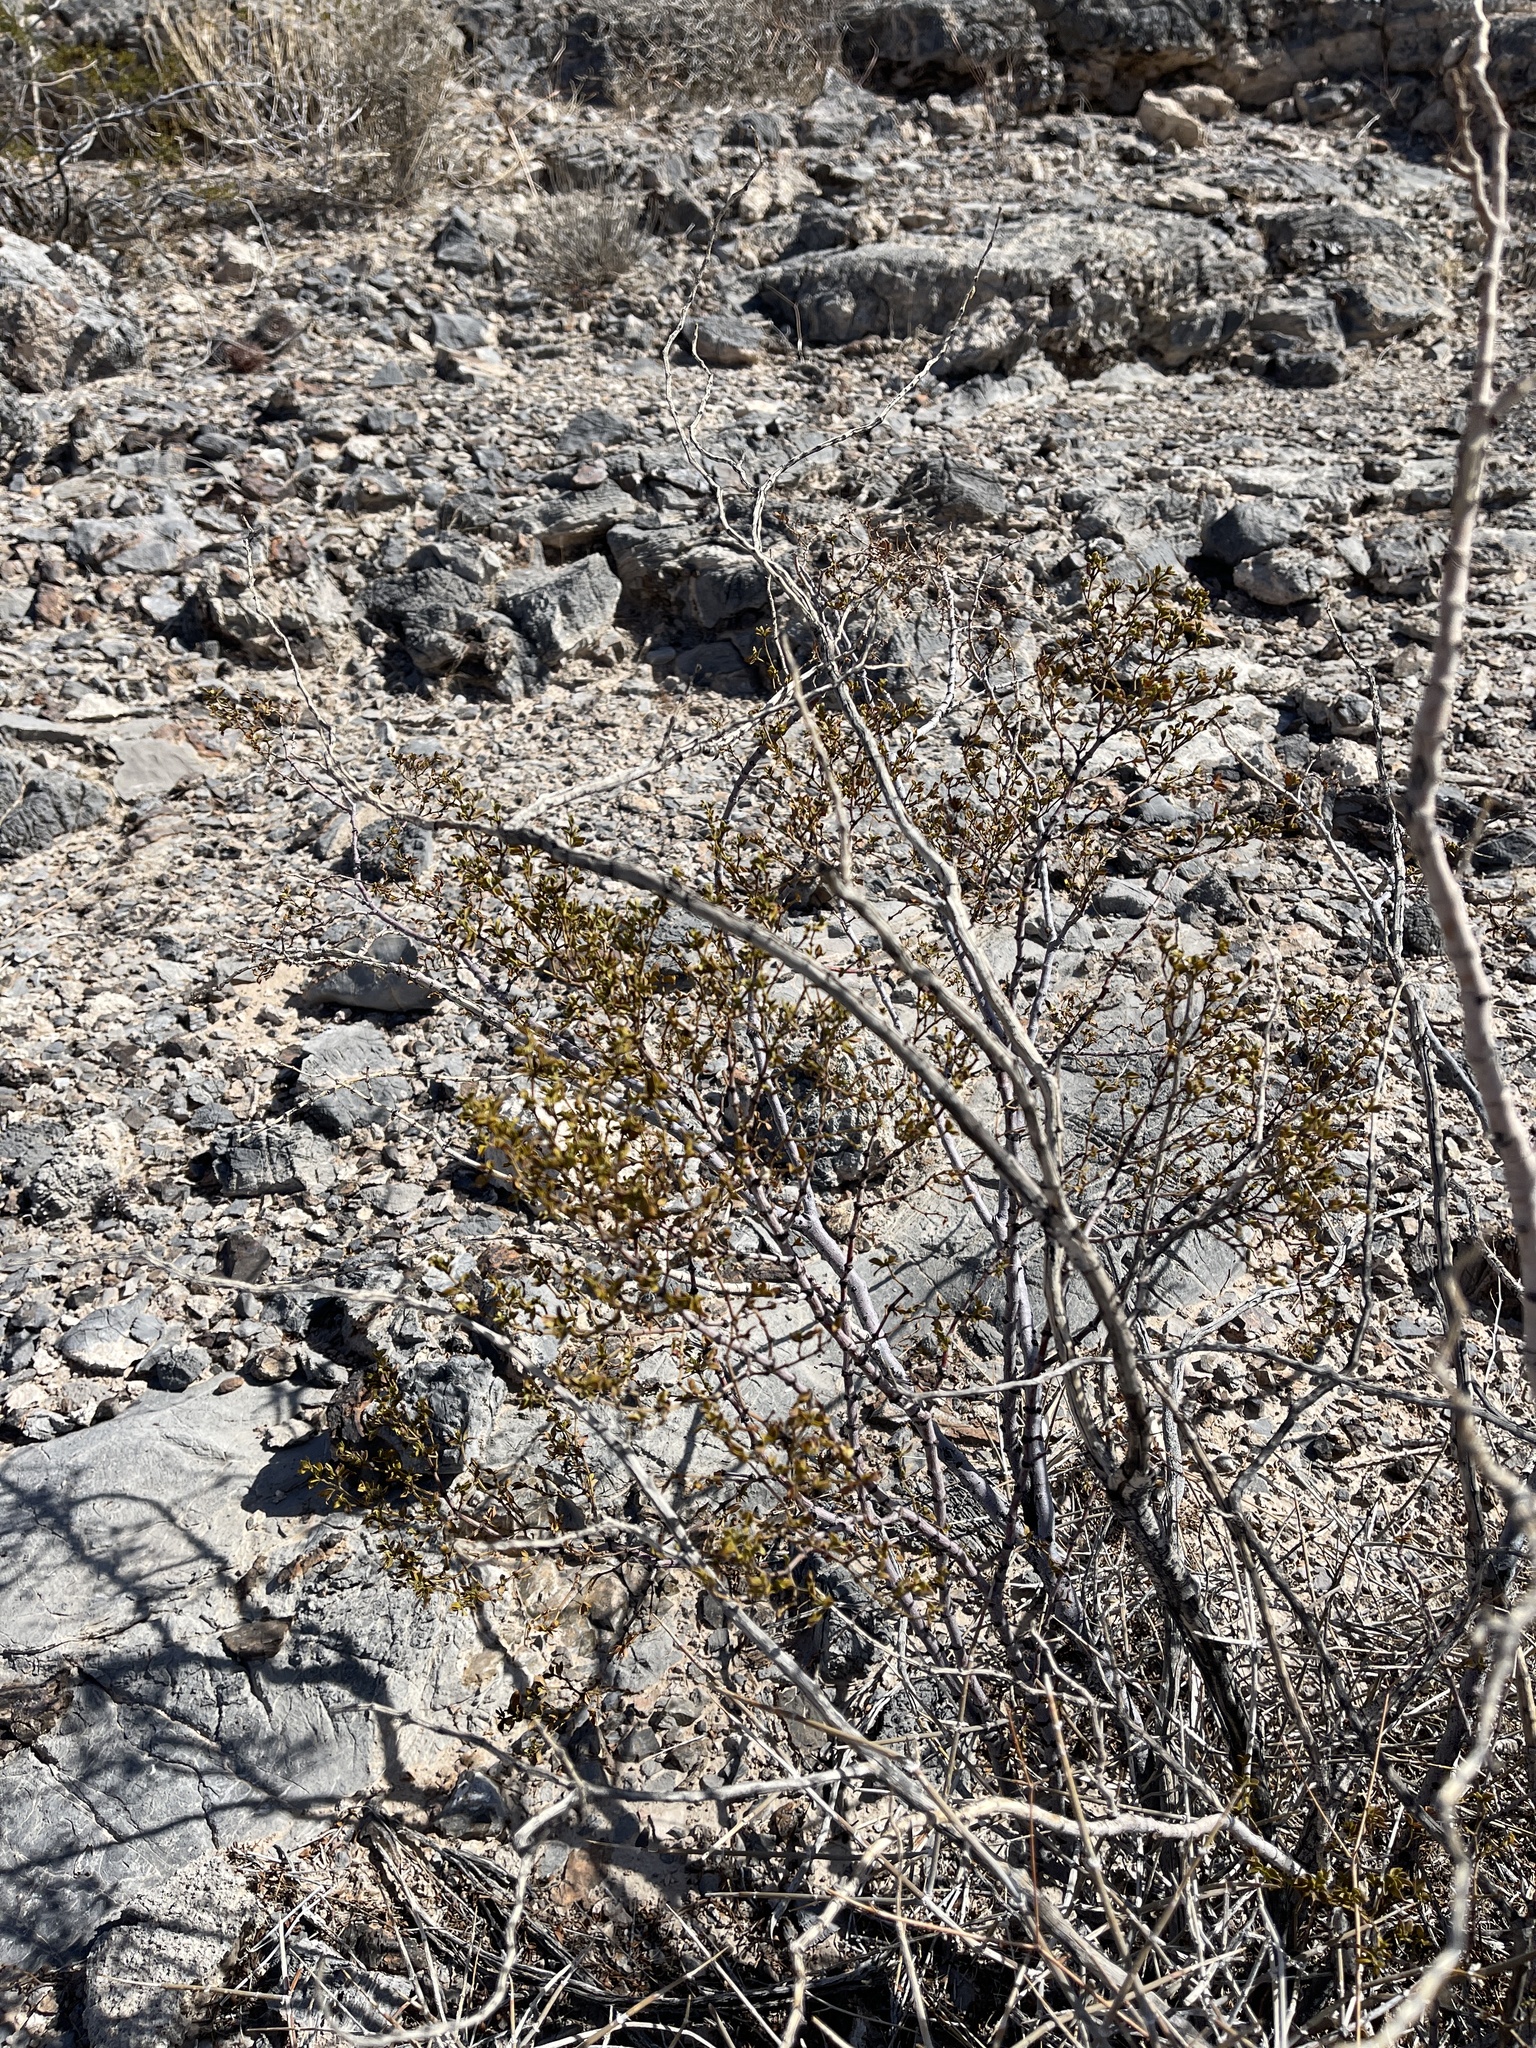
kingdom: Plantae
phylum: Tracheophyta
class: Magnoliopsida
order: Zygophyllales
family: Zygophyllaceae
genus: Larrea
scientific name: Larrea tridentata
